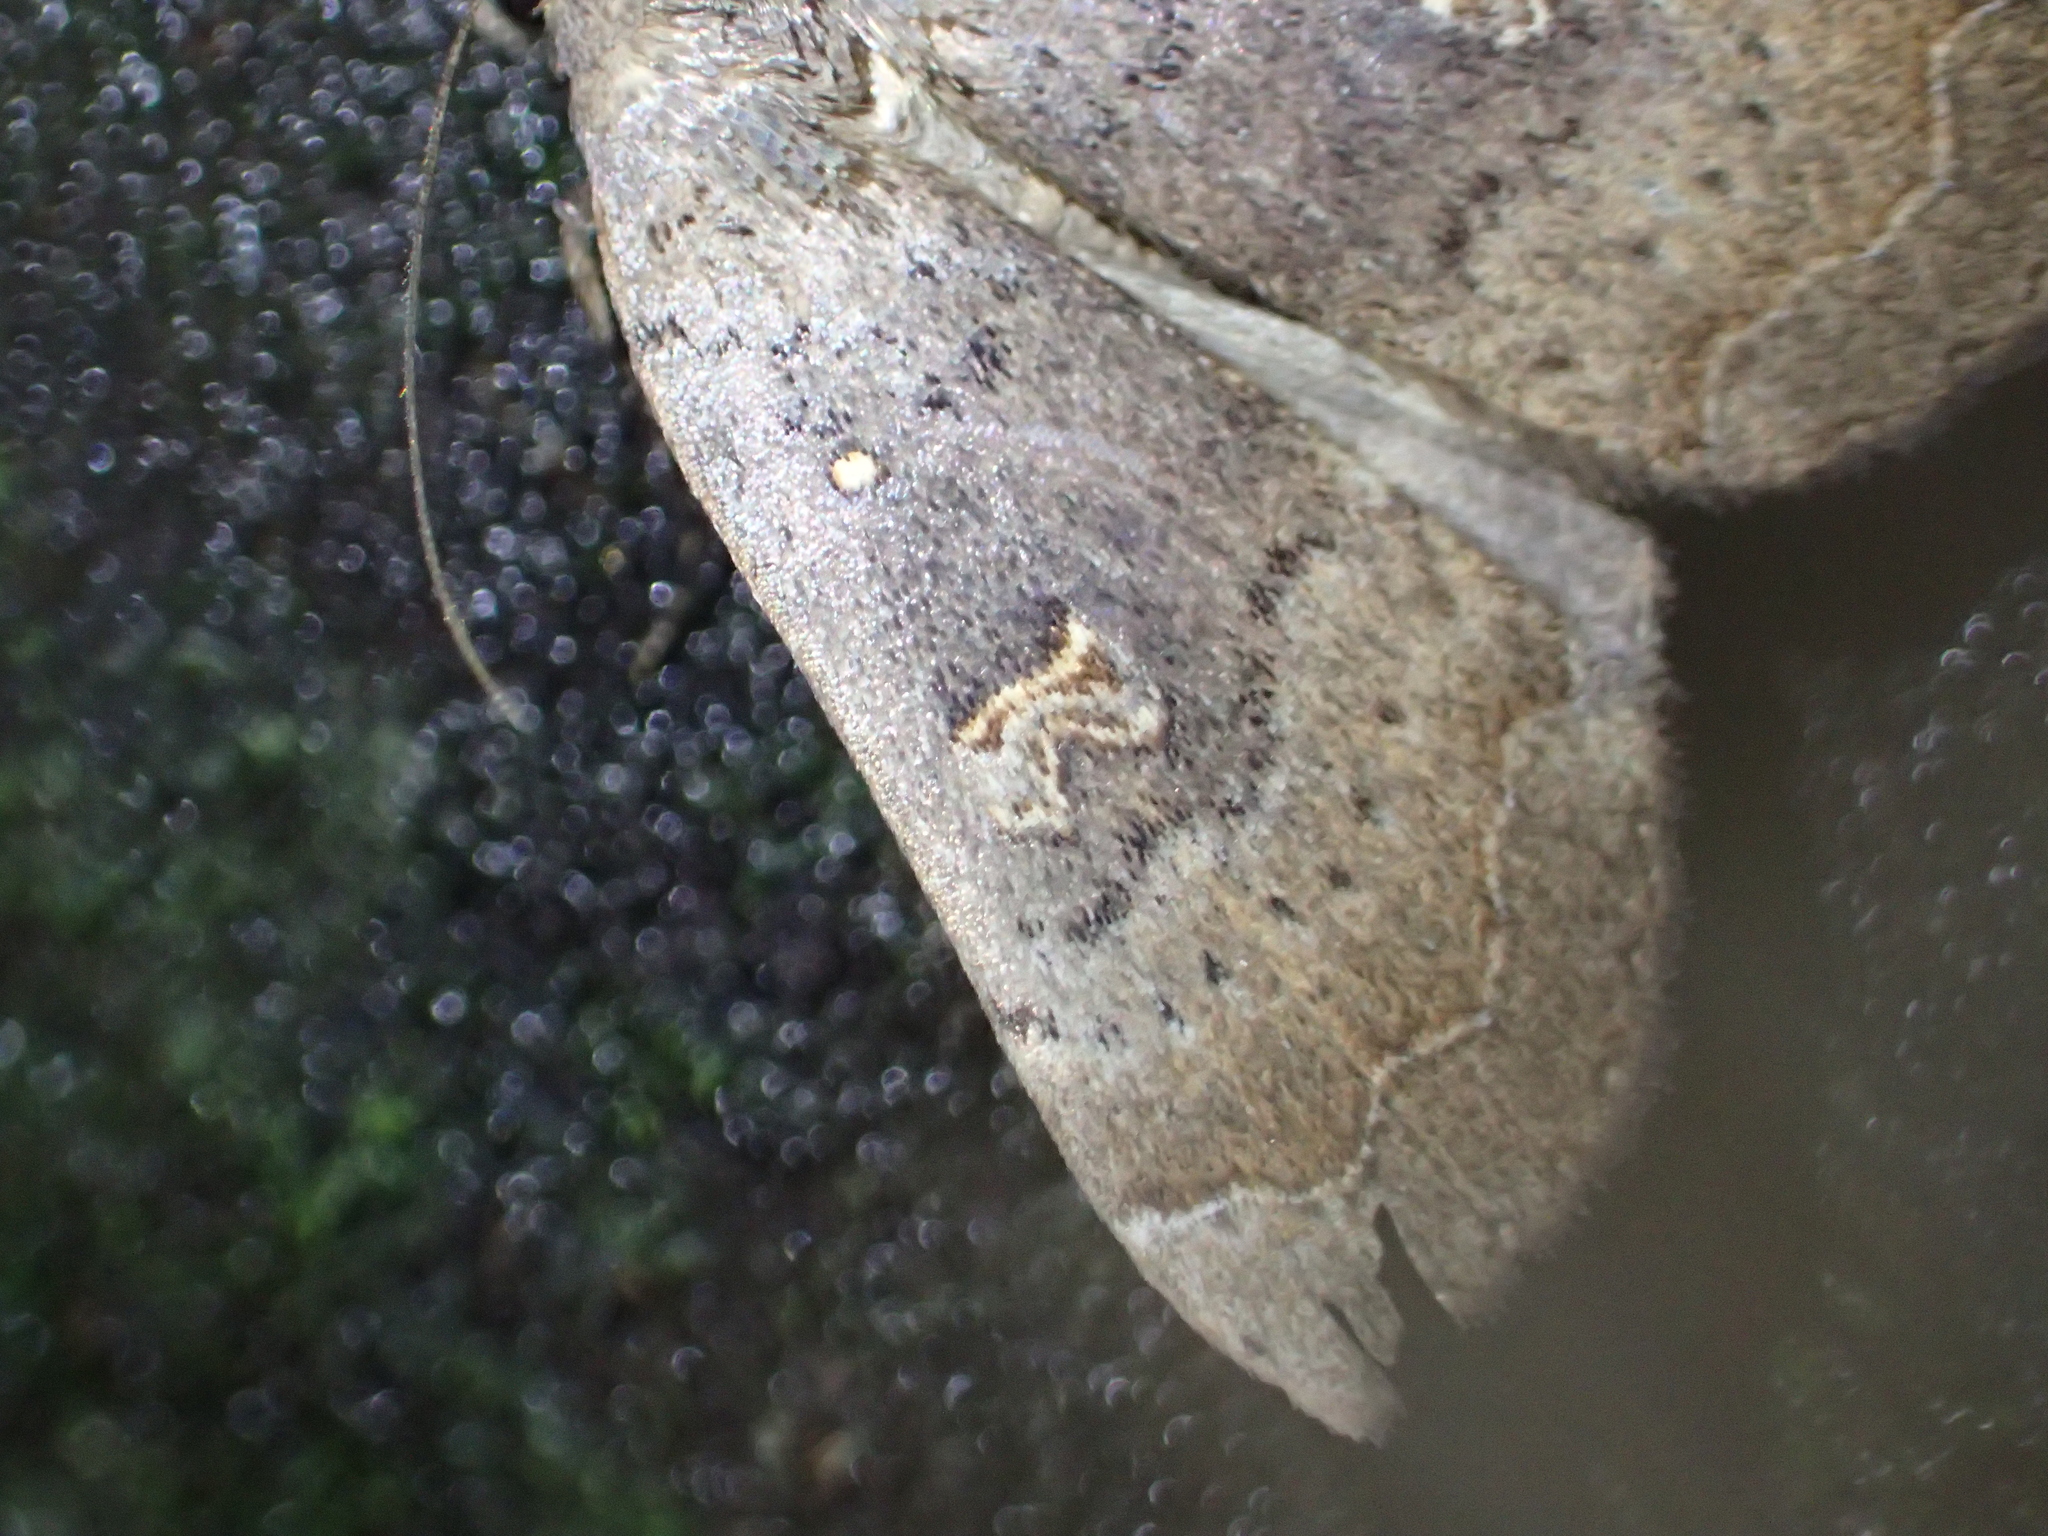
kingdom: Animalia
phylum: Arthropoda
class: Insecta
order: Lepidoptera
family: Erebidae
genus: Rhapsa
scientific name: Rhapsa scotosialis
